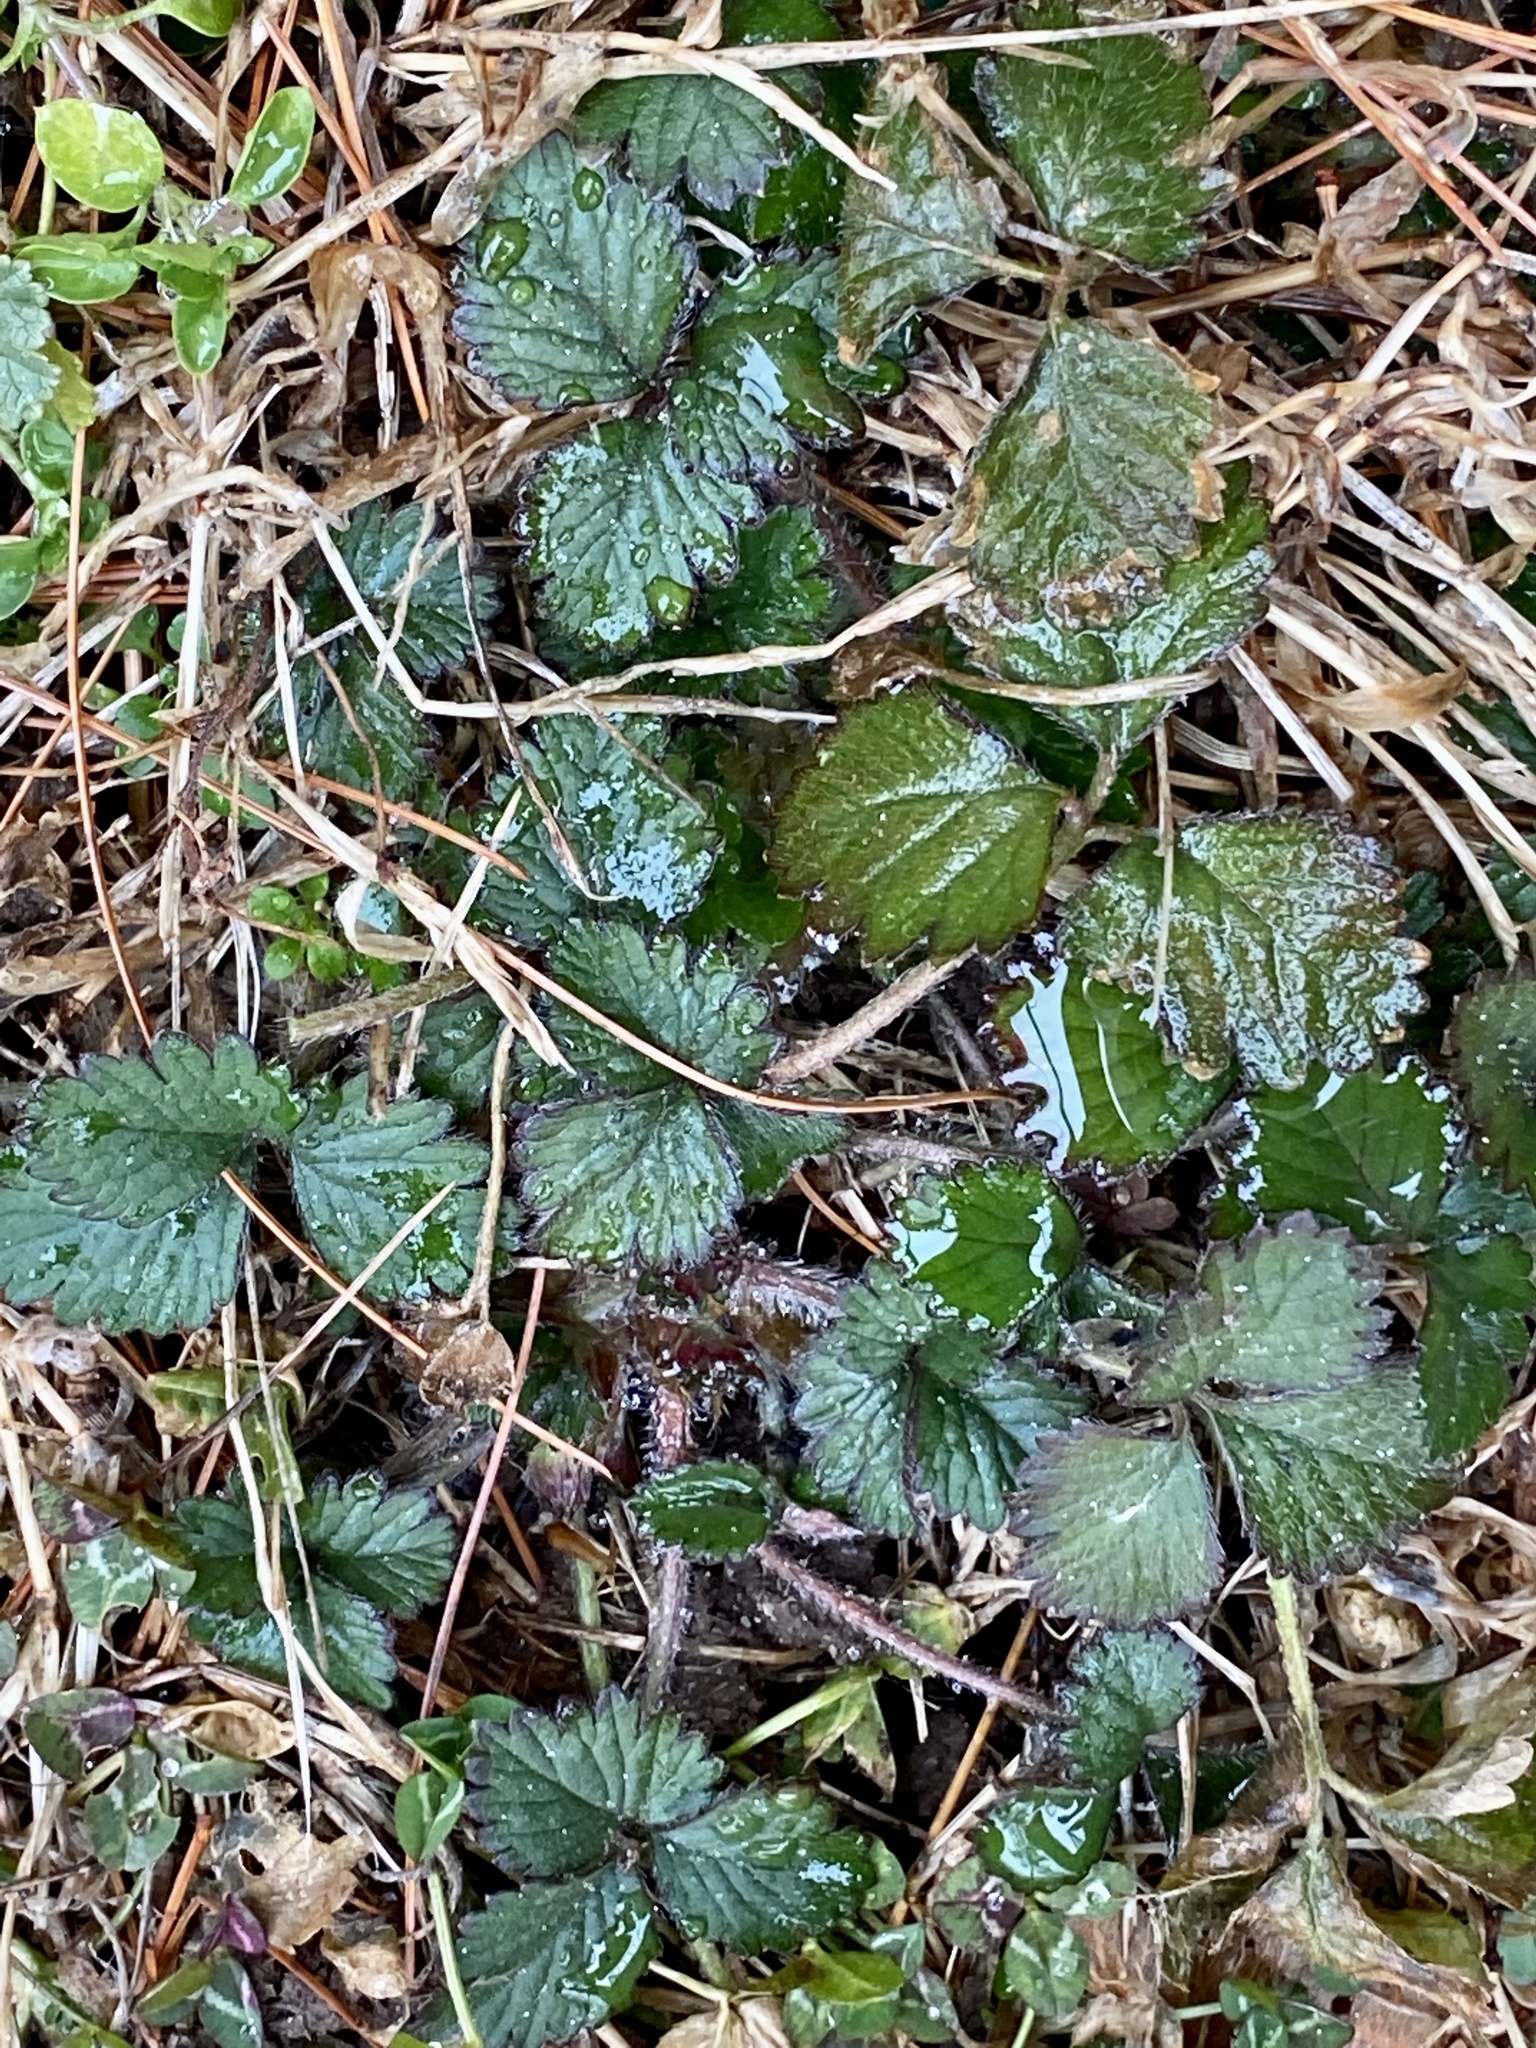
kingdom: Plantae
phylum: Tracheophyta
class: Magnoliopsida
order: Rosales
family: Rosaceae
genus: Potentilla
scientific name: Potentilla indica
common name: Yellow-flowered strawberry
